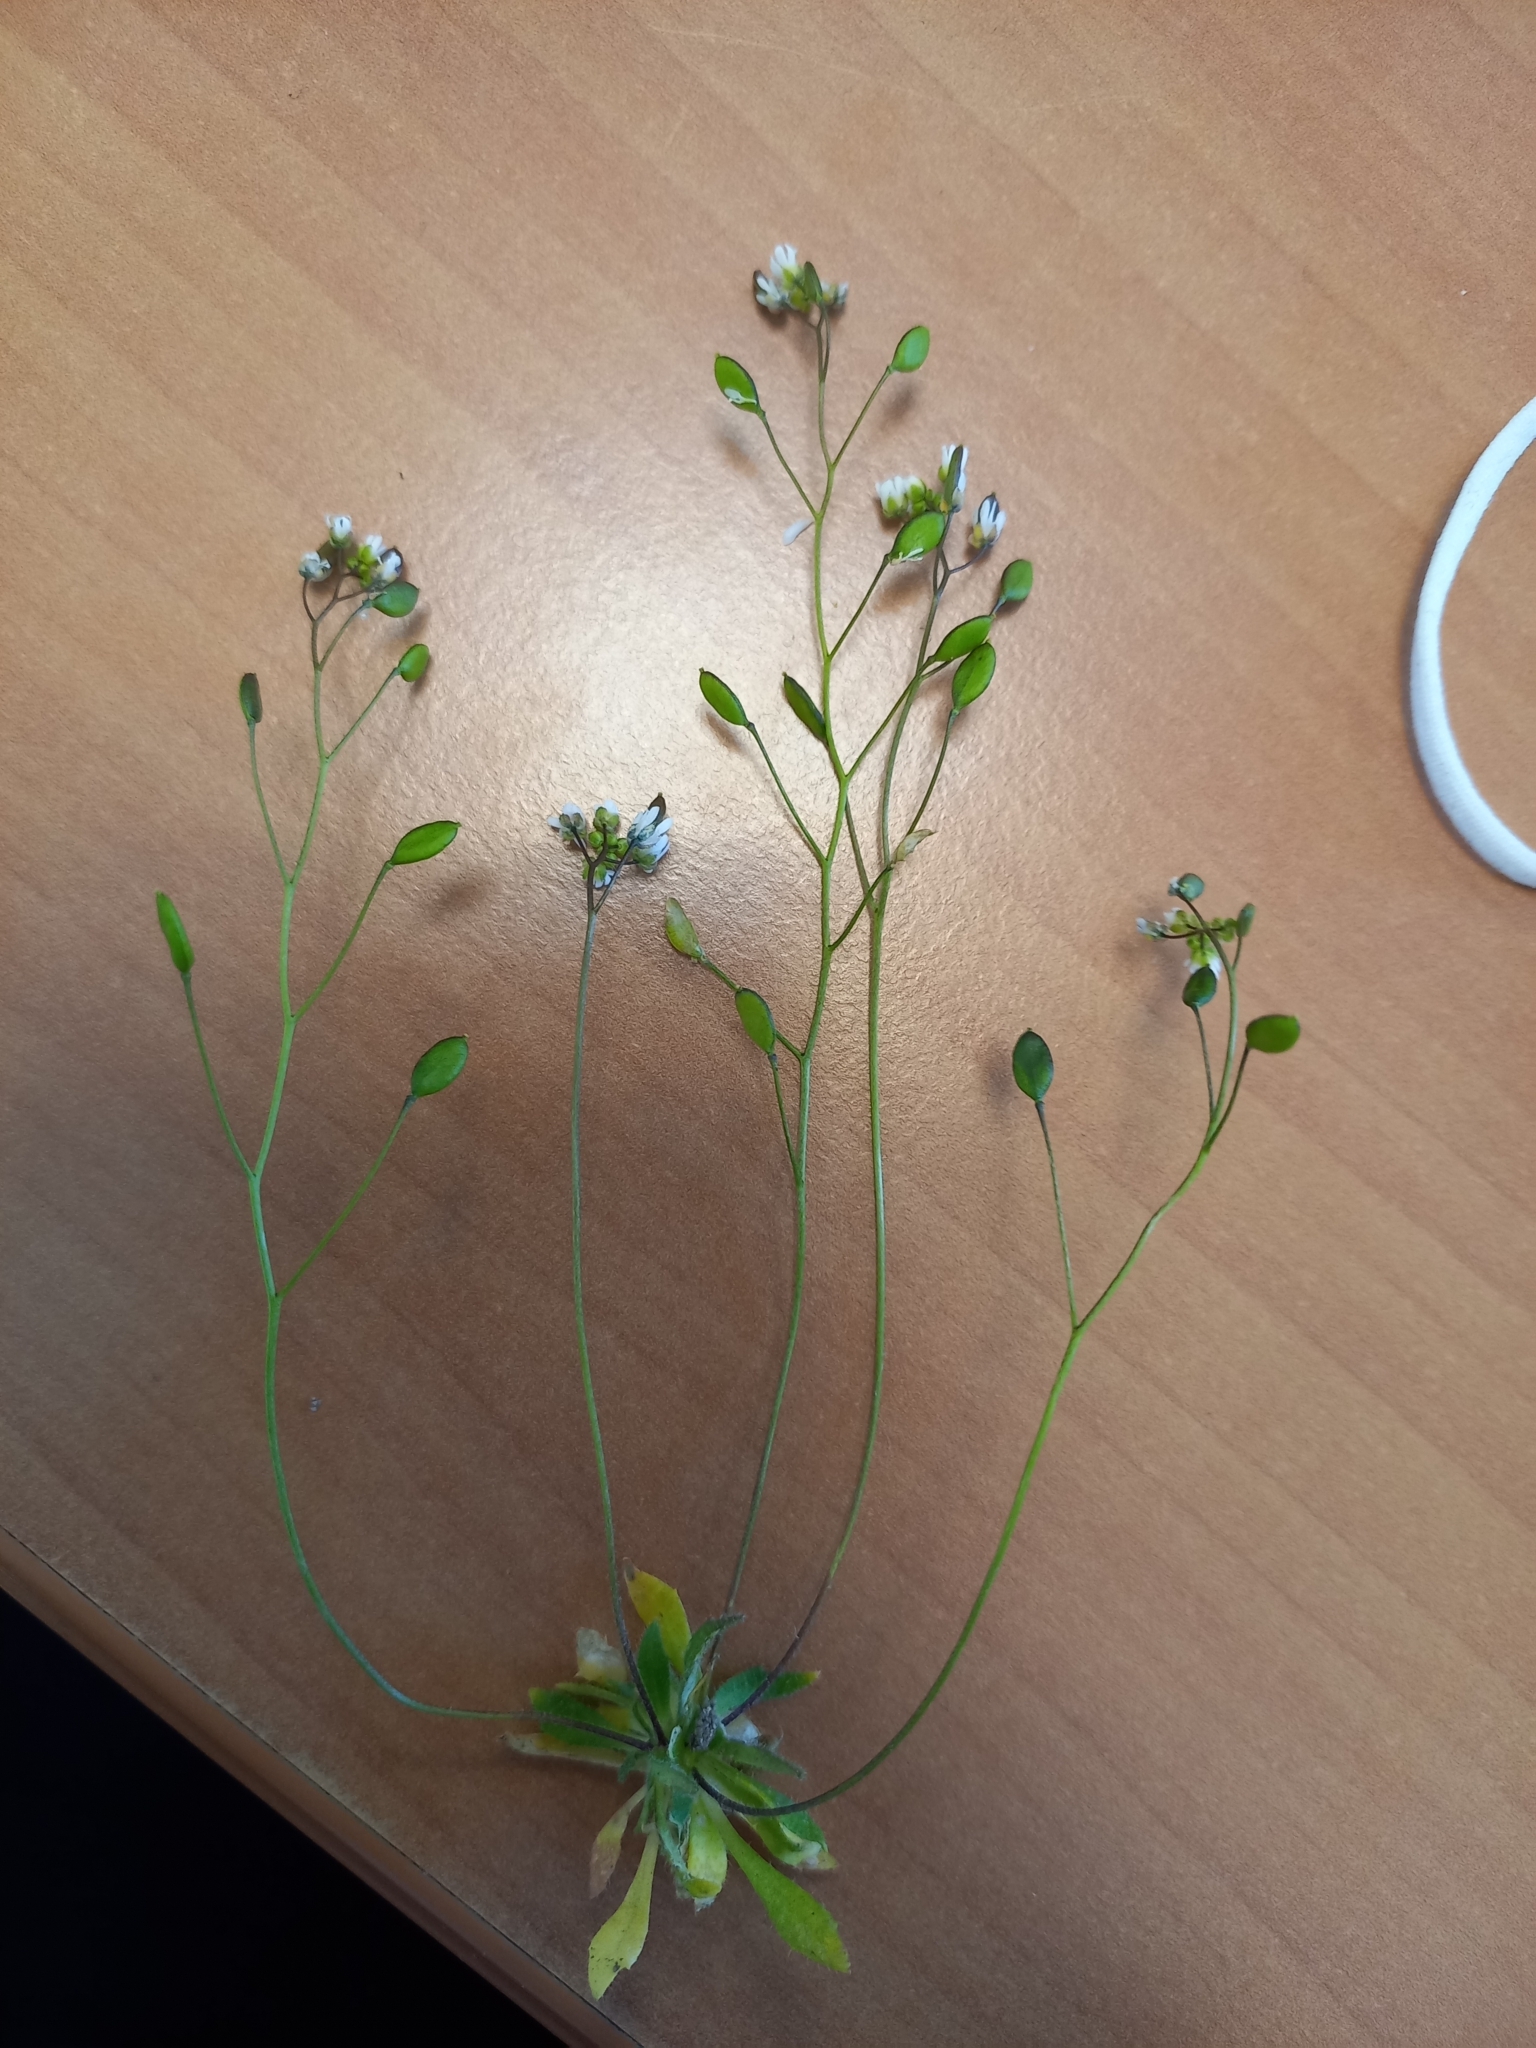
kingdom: Plantae
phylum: Tracheophyta
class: Magnoliopsida
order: Brassicales
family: Brassicaceae
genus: Draba
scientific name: Draba verna
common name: Spring draba
